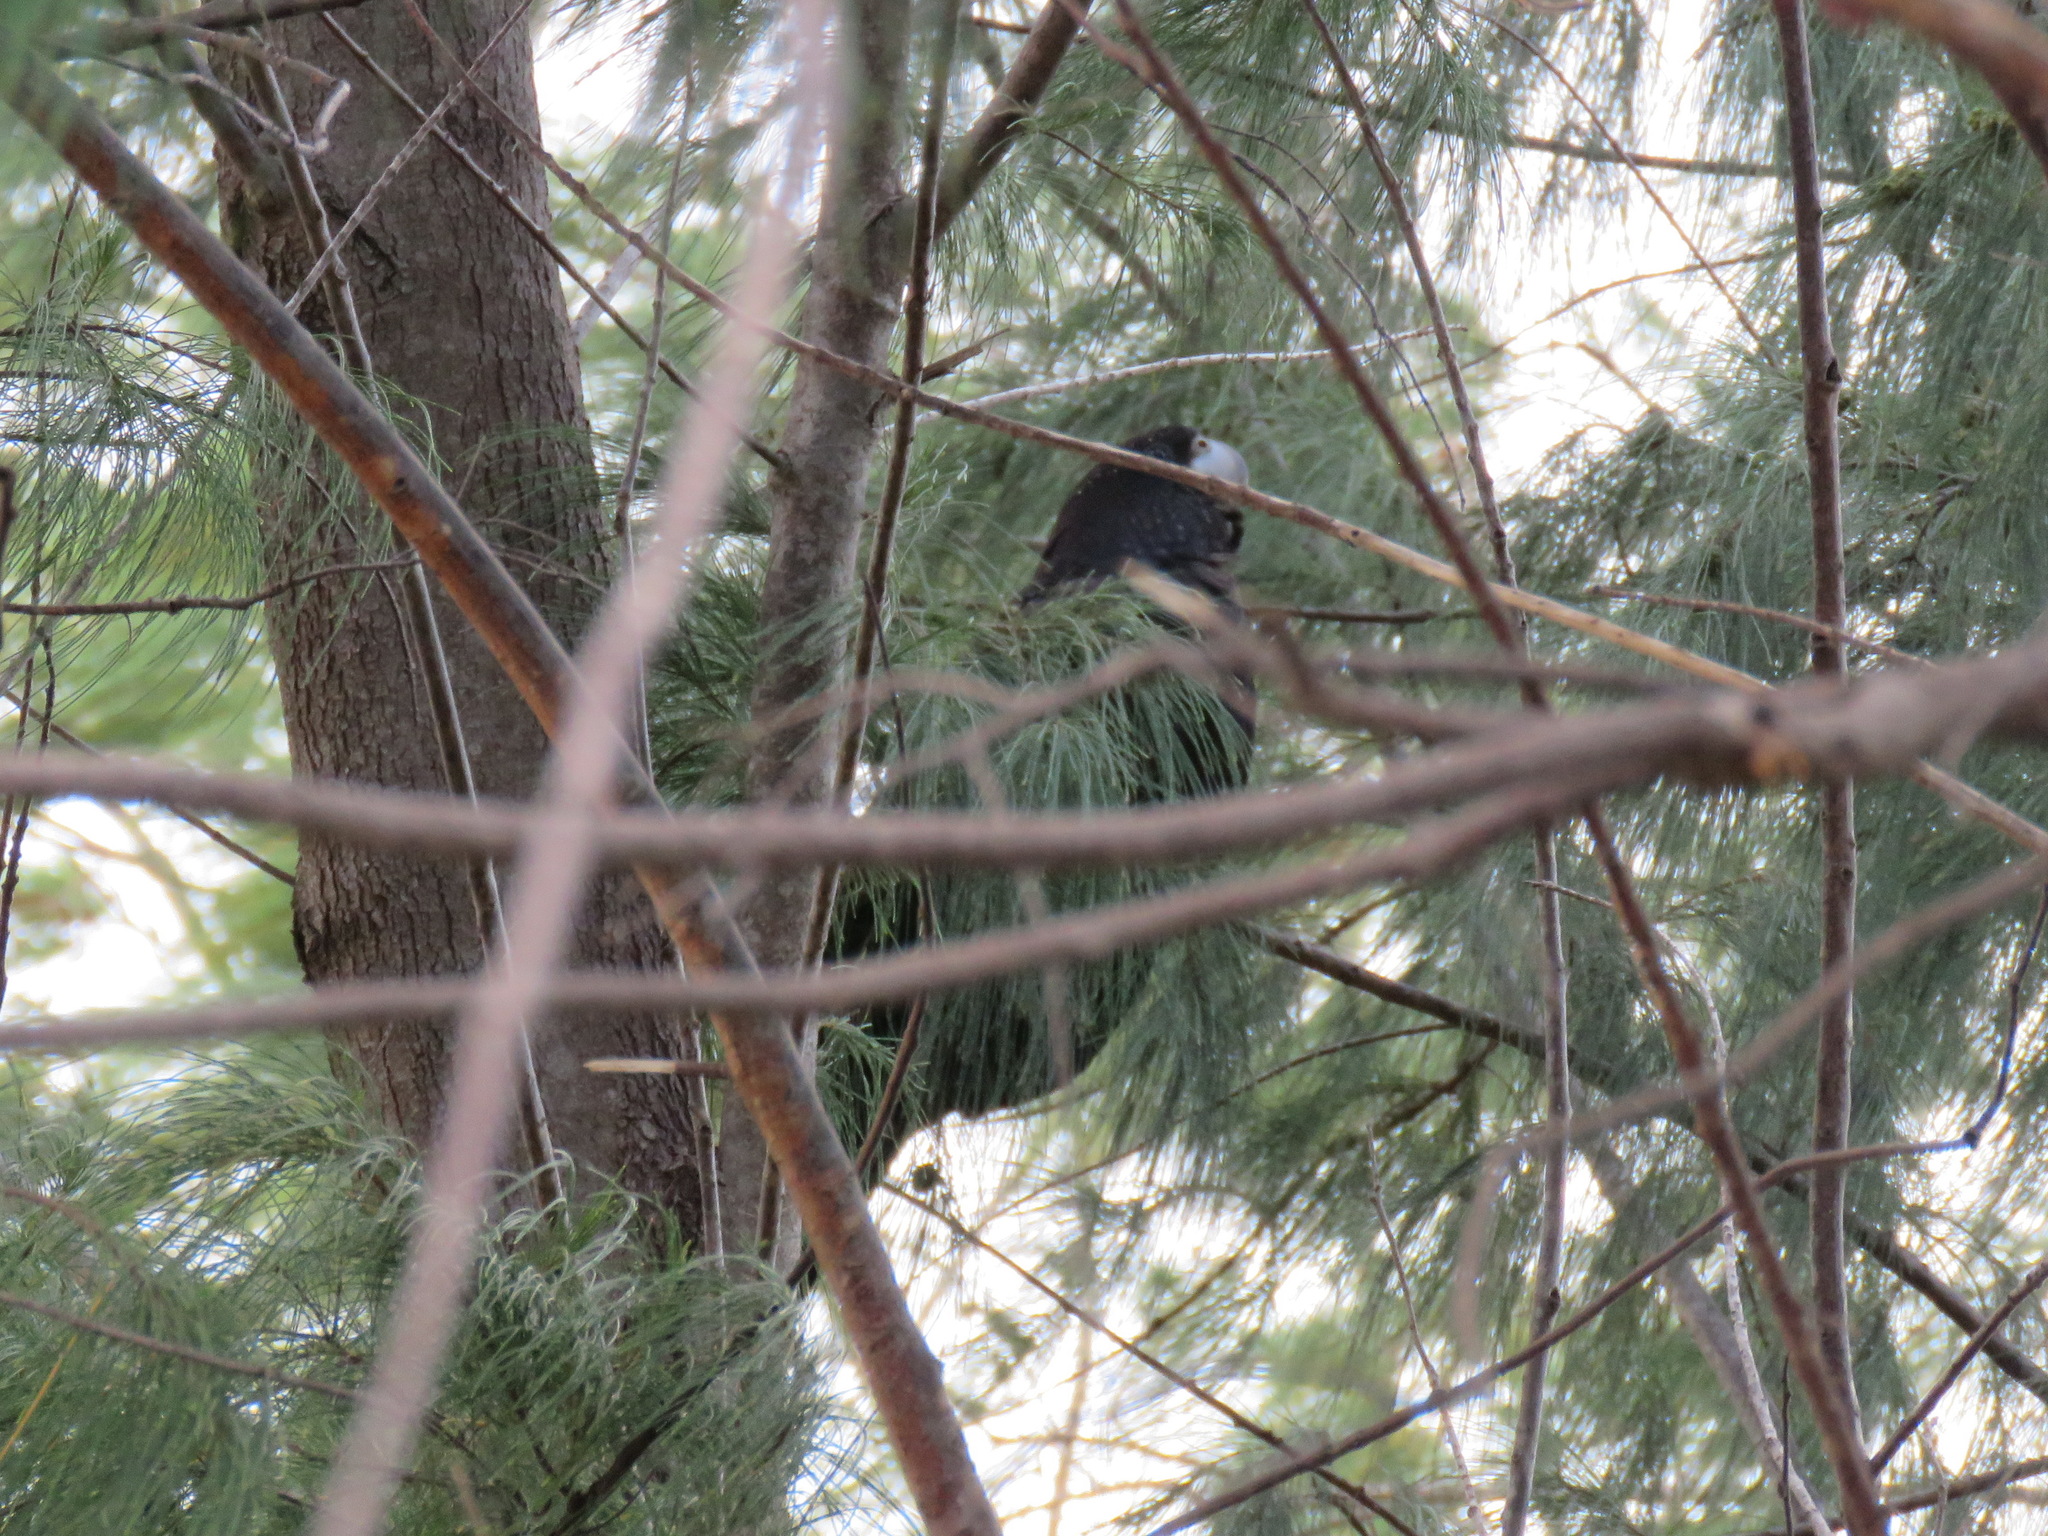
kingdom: Animalia
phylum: Chordata
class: Aves
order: Psittaciformes
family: Psittacidae
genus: Calyptorhynchus
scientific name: Calyptorhynchus banksii
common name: Red-tailed black cockatoo
